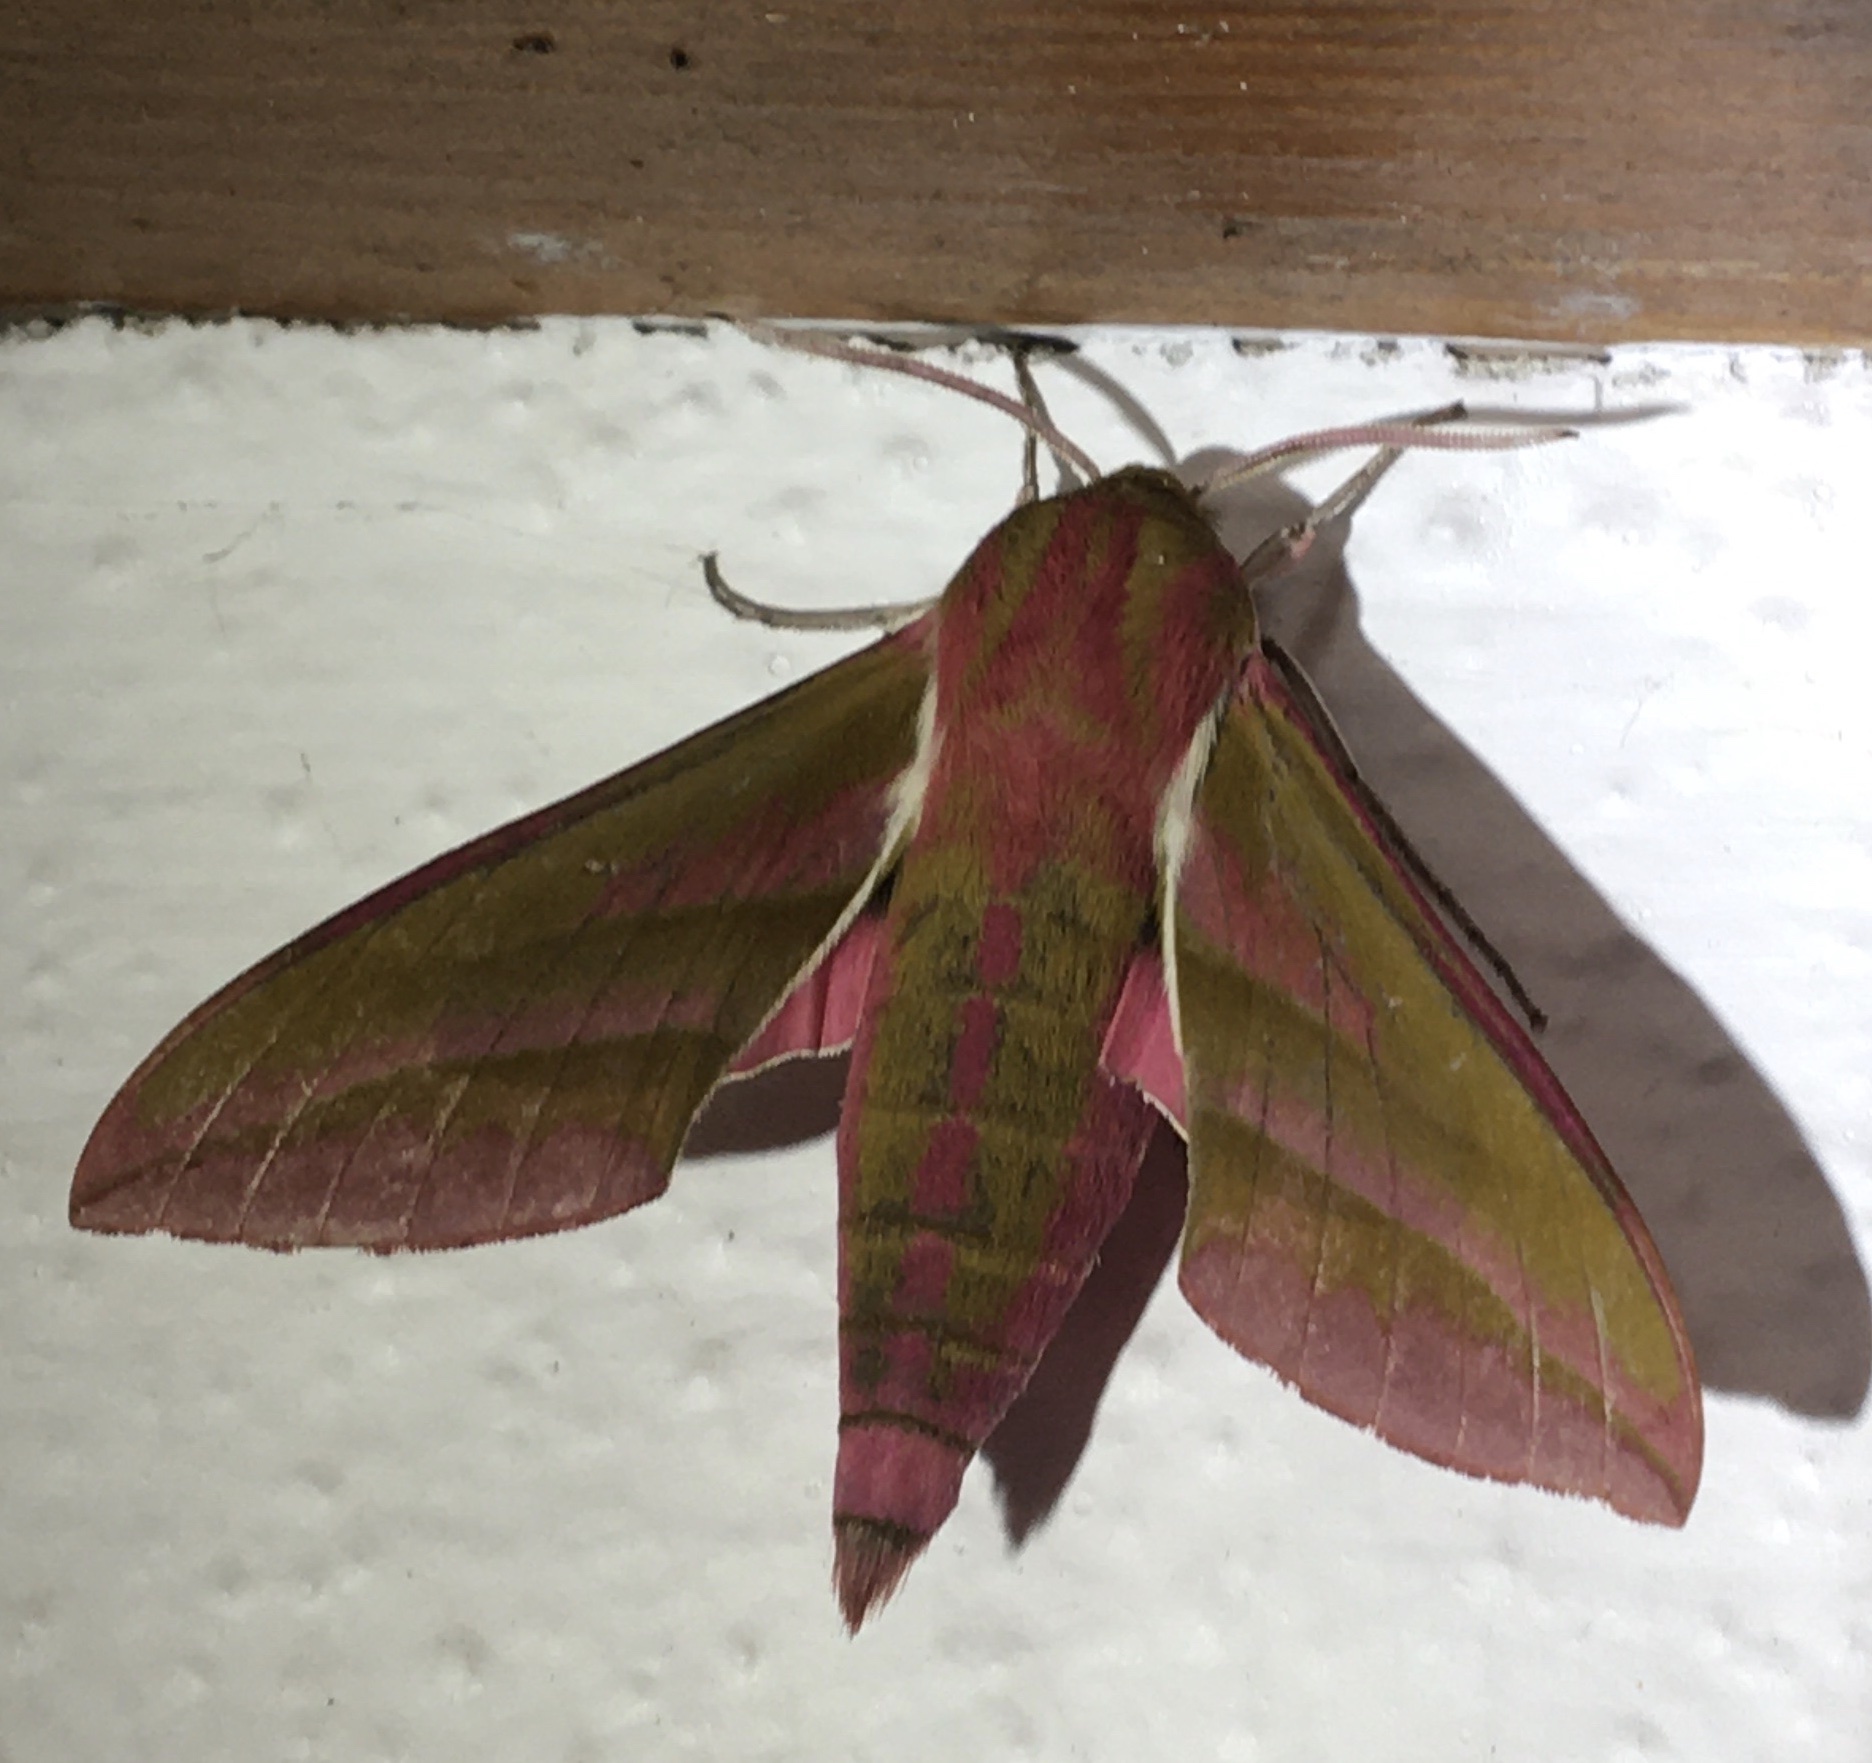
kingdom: Animalia
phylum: Arthropoda
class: Insecta
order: Lepidoptera
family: Sphingidae
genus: Deilephila
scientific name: Deilephila elpenor
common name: Elephant hawk-moth
